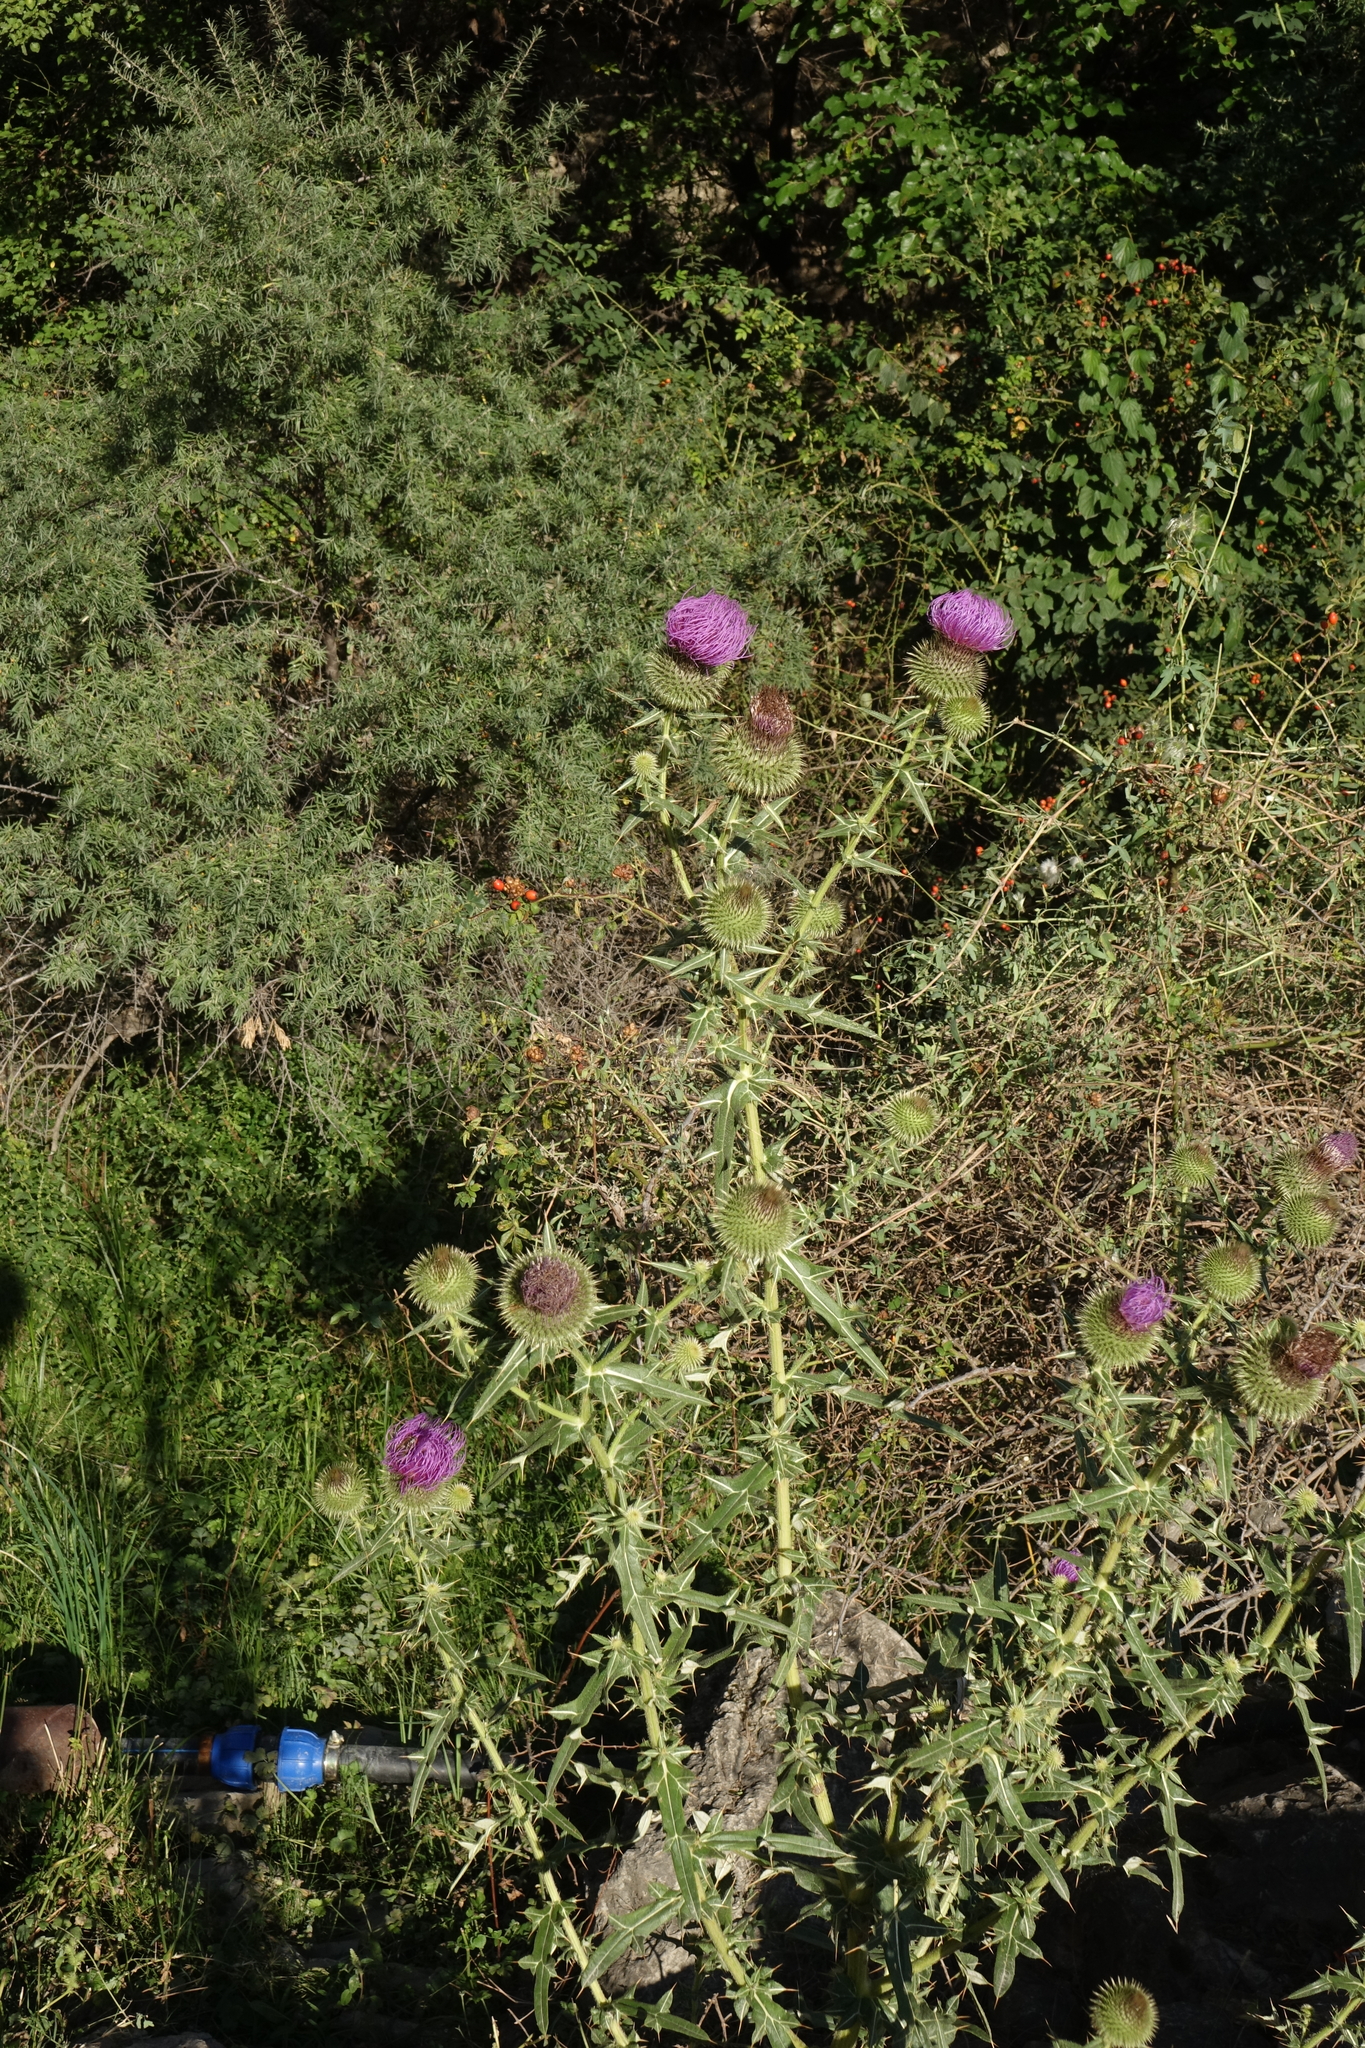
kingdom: Plantae
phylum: Tracheophyta
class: Magnoliopsida
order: Asterales
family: Asteraceae
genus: Lophiolepis
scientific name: Lophiolepis ciliata
